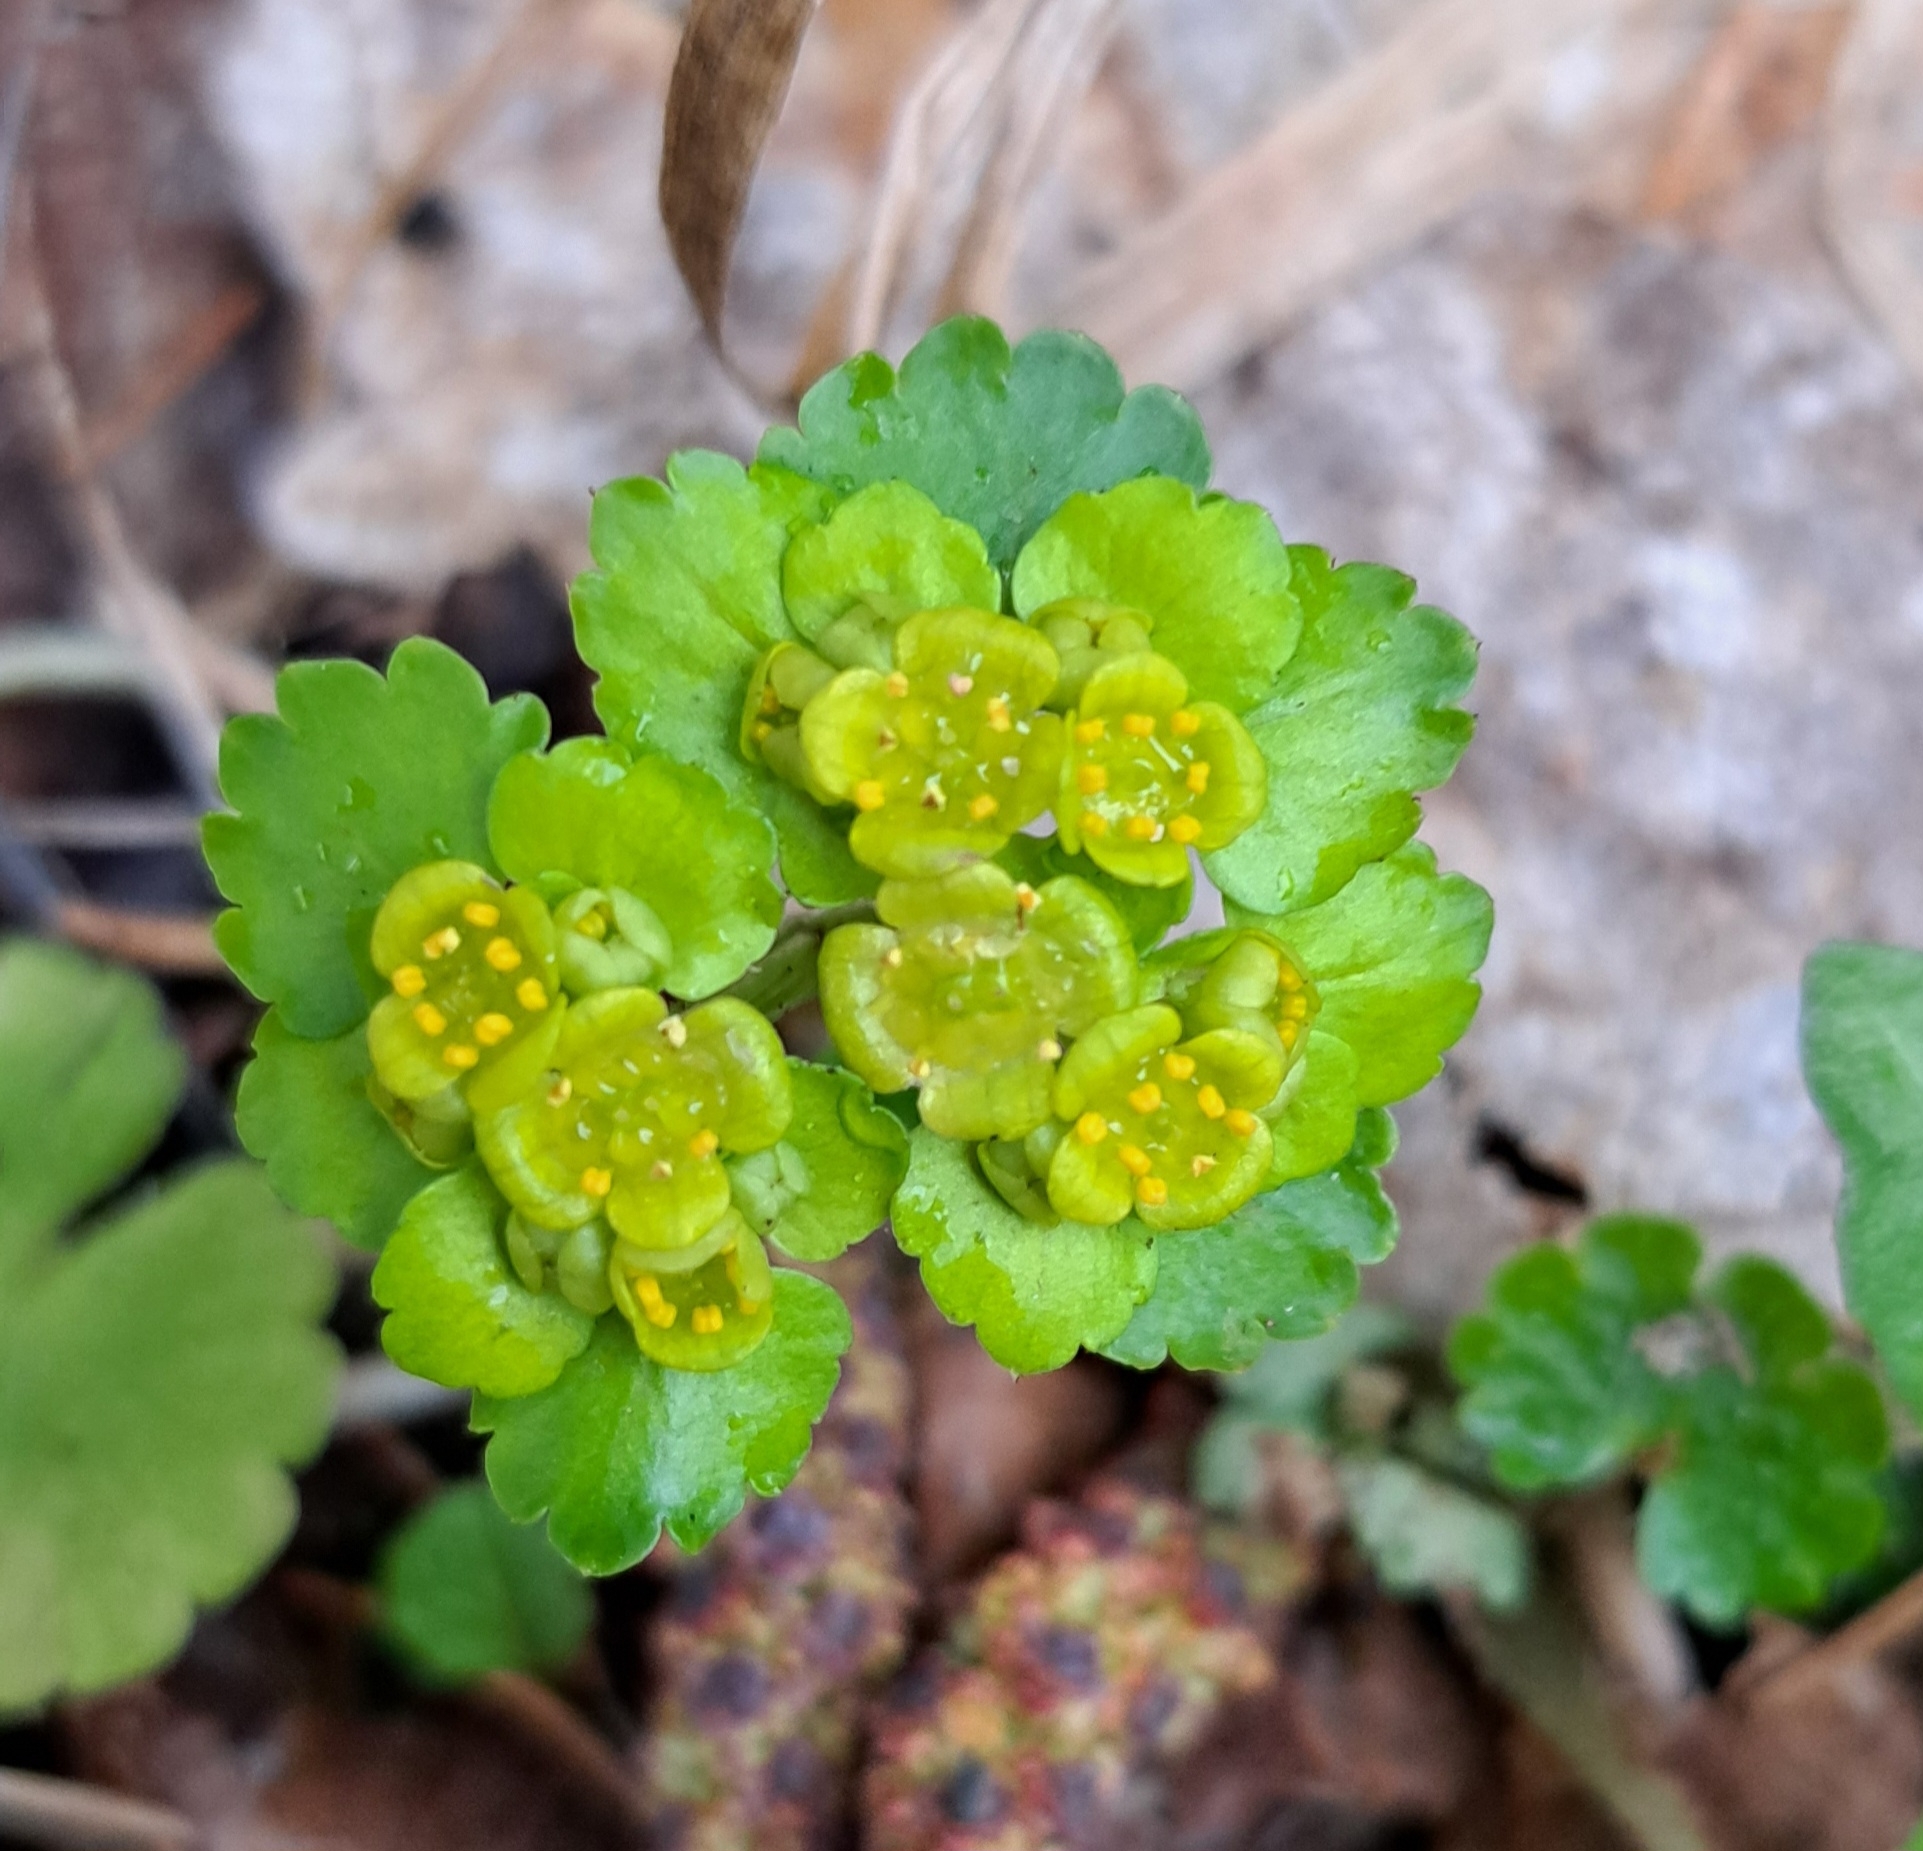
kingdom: Plantae
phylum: Tracheophyta
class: Magnoliopsida
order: Saxifragales
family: Saxifragaceae
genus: Chrysosplenium
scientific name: Chrysosplenium alternifolium
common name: Alternate-leaved golden-saxifrage
